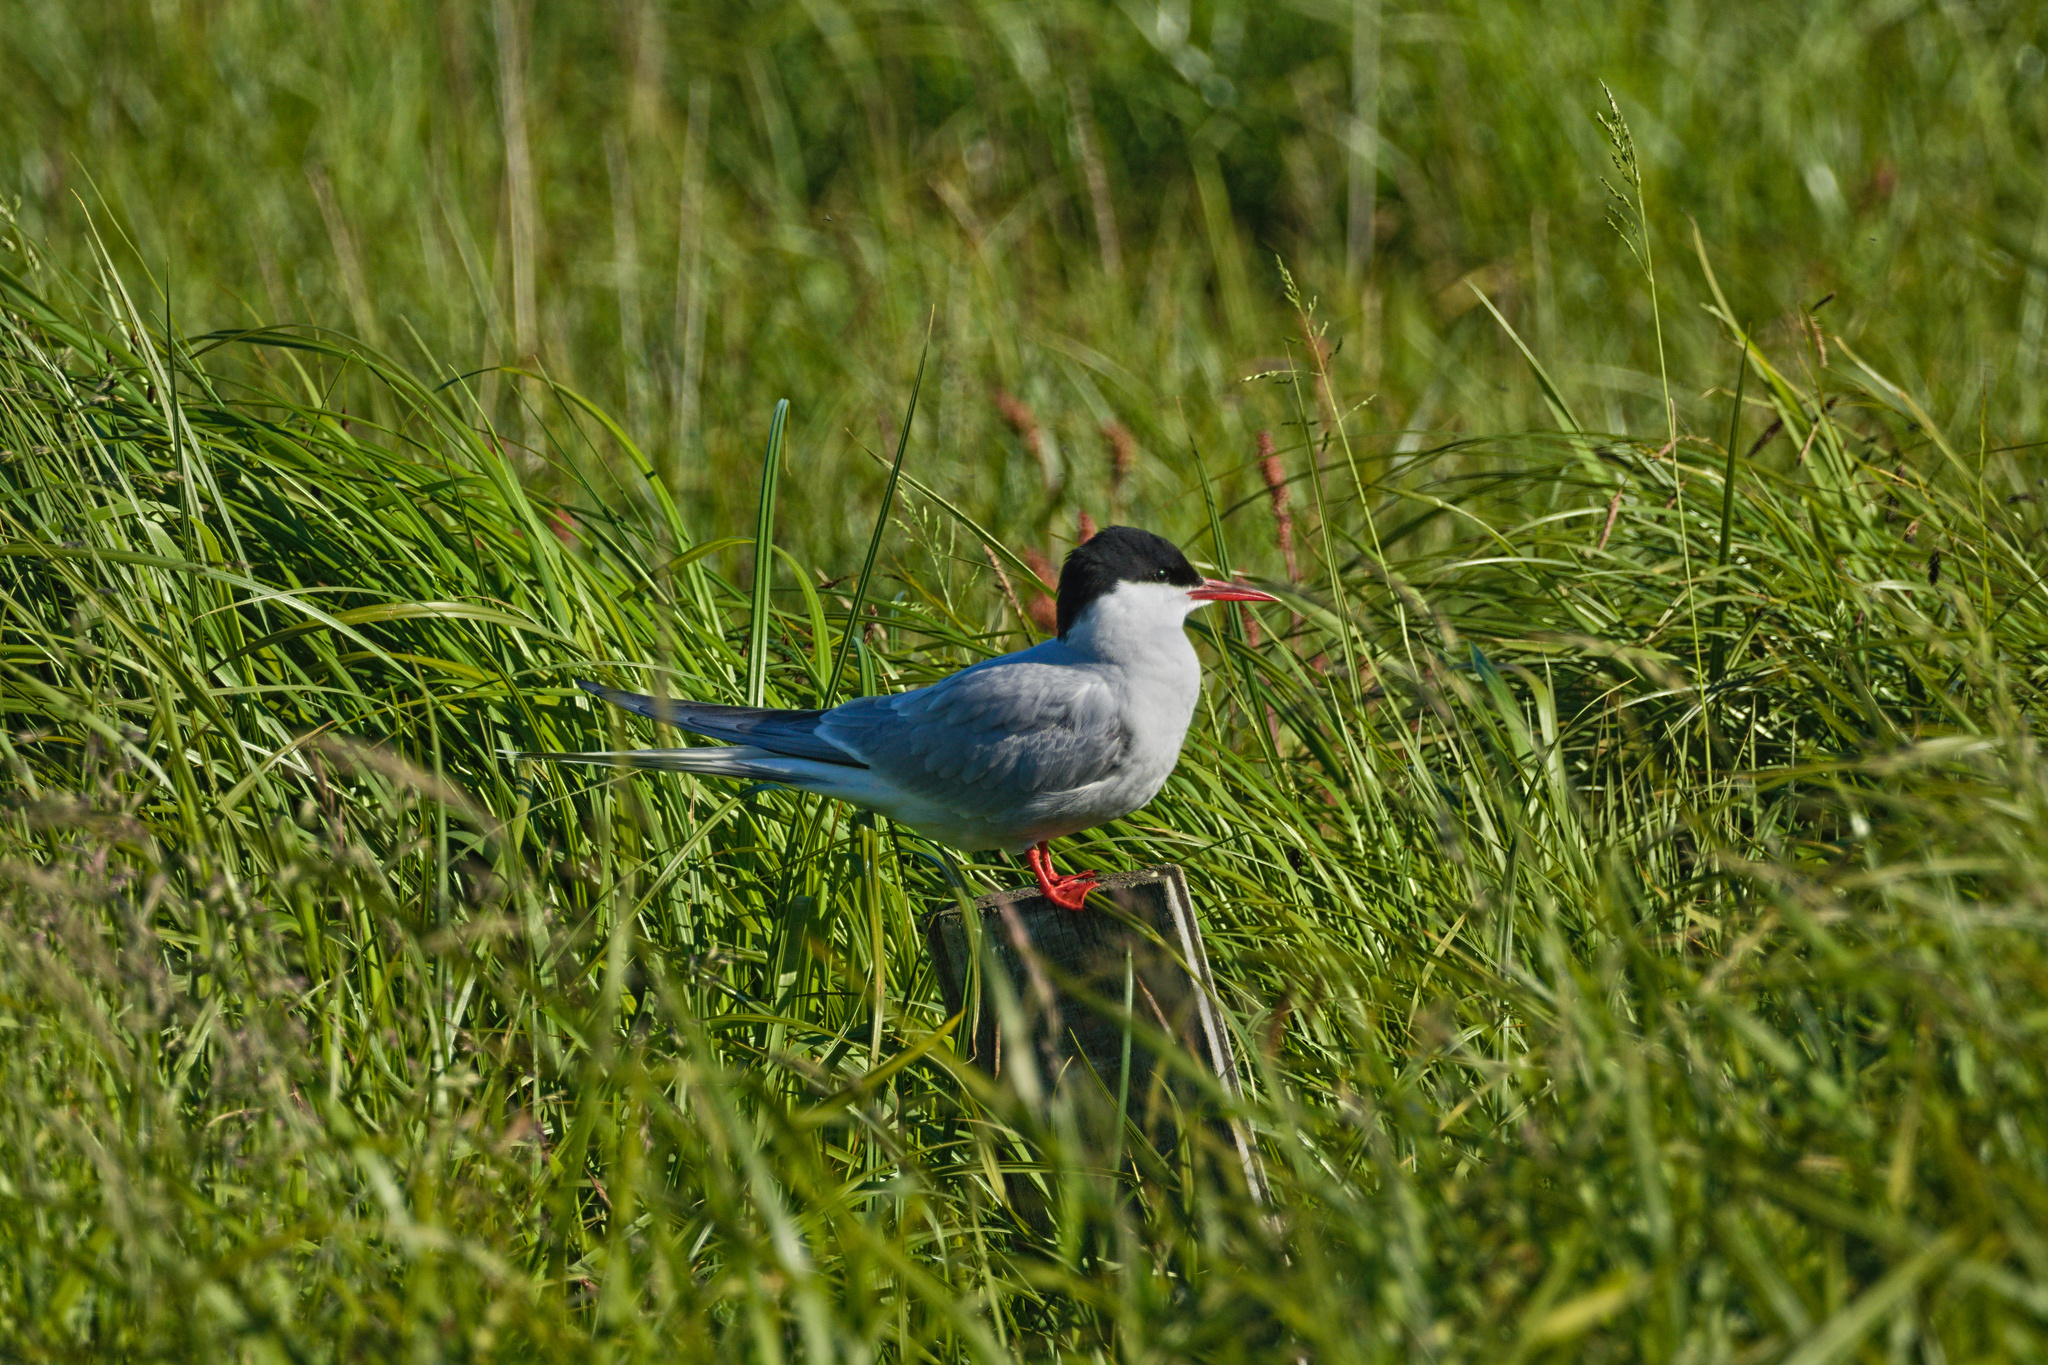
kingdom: Animalia
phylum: Chordata
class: Aves
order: Charadriiformes
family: Laridae
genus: Sterna
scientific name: Sterna paradisaea
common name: Arctic tern
